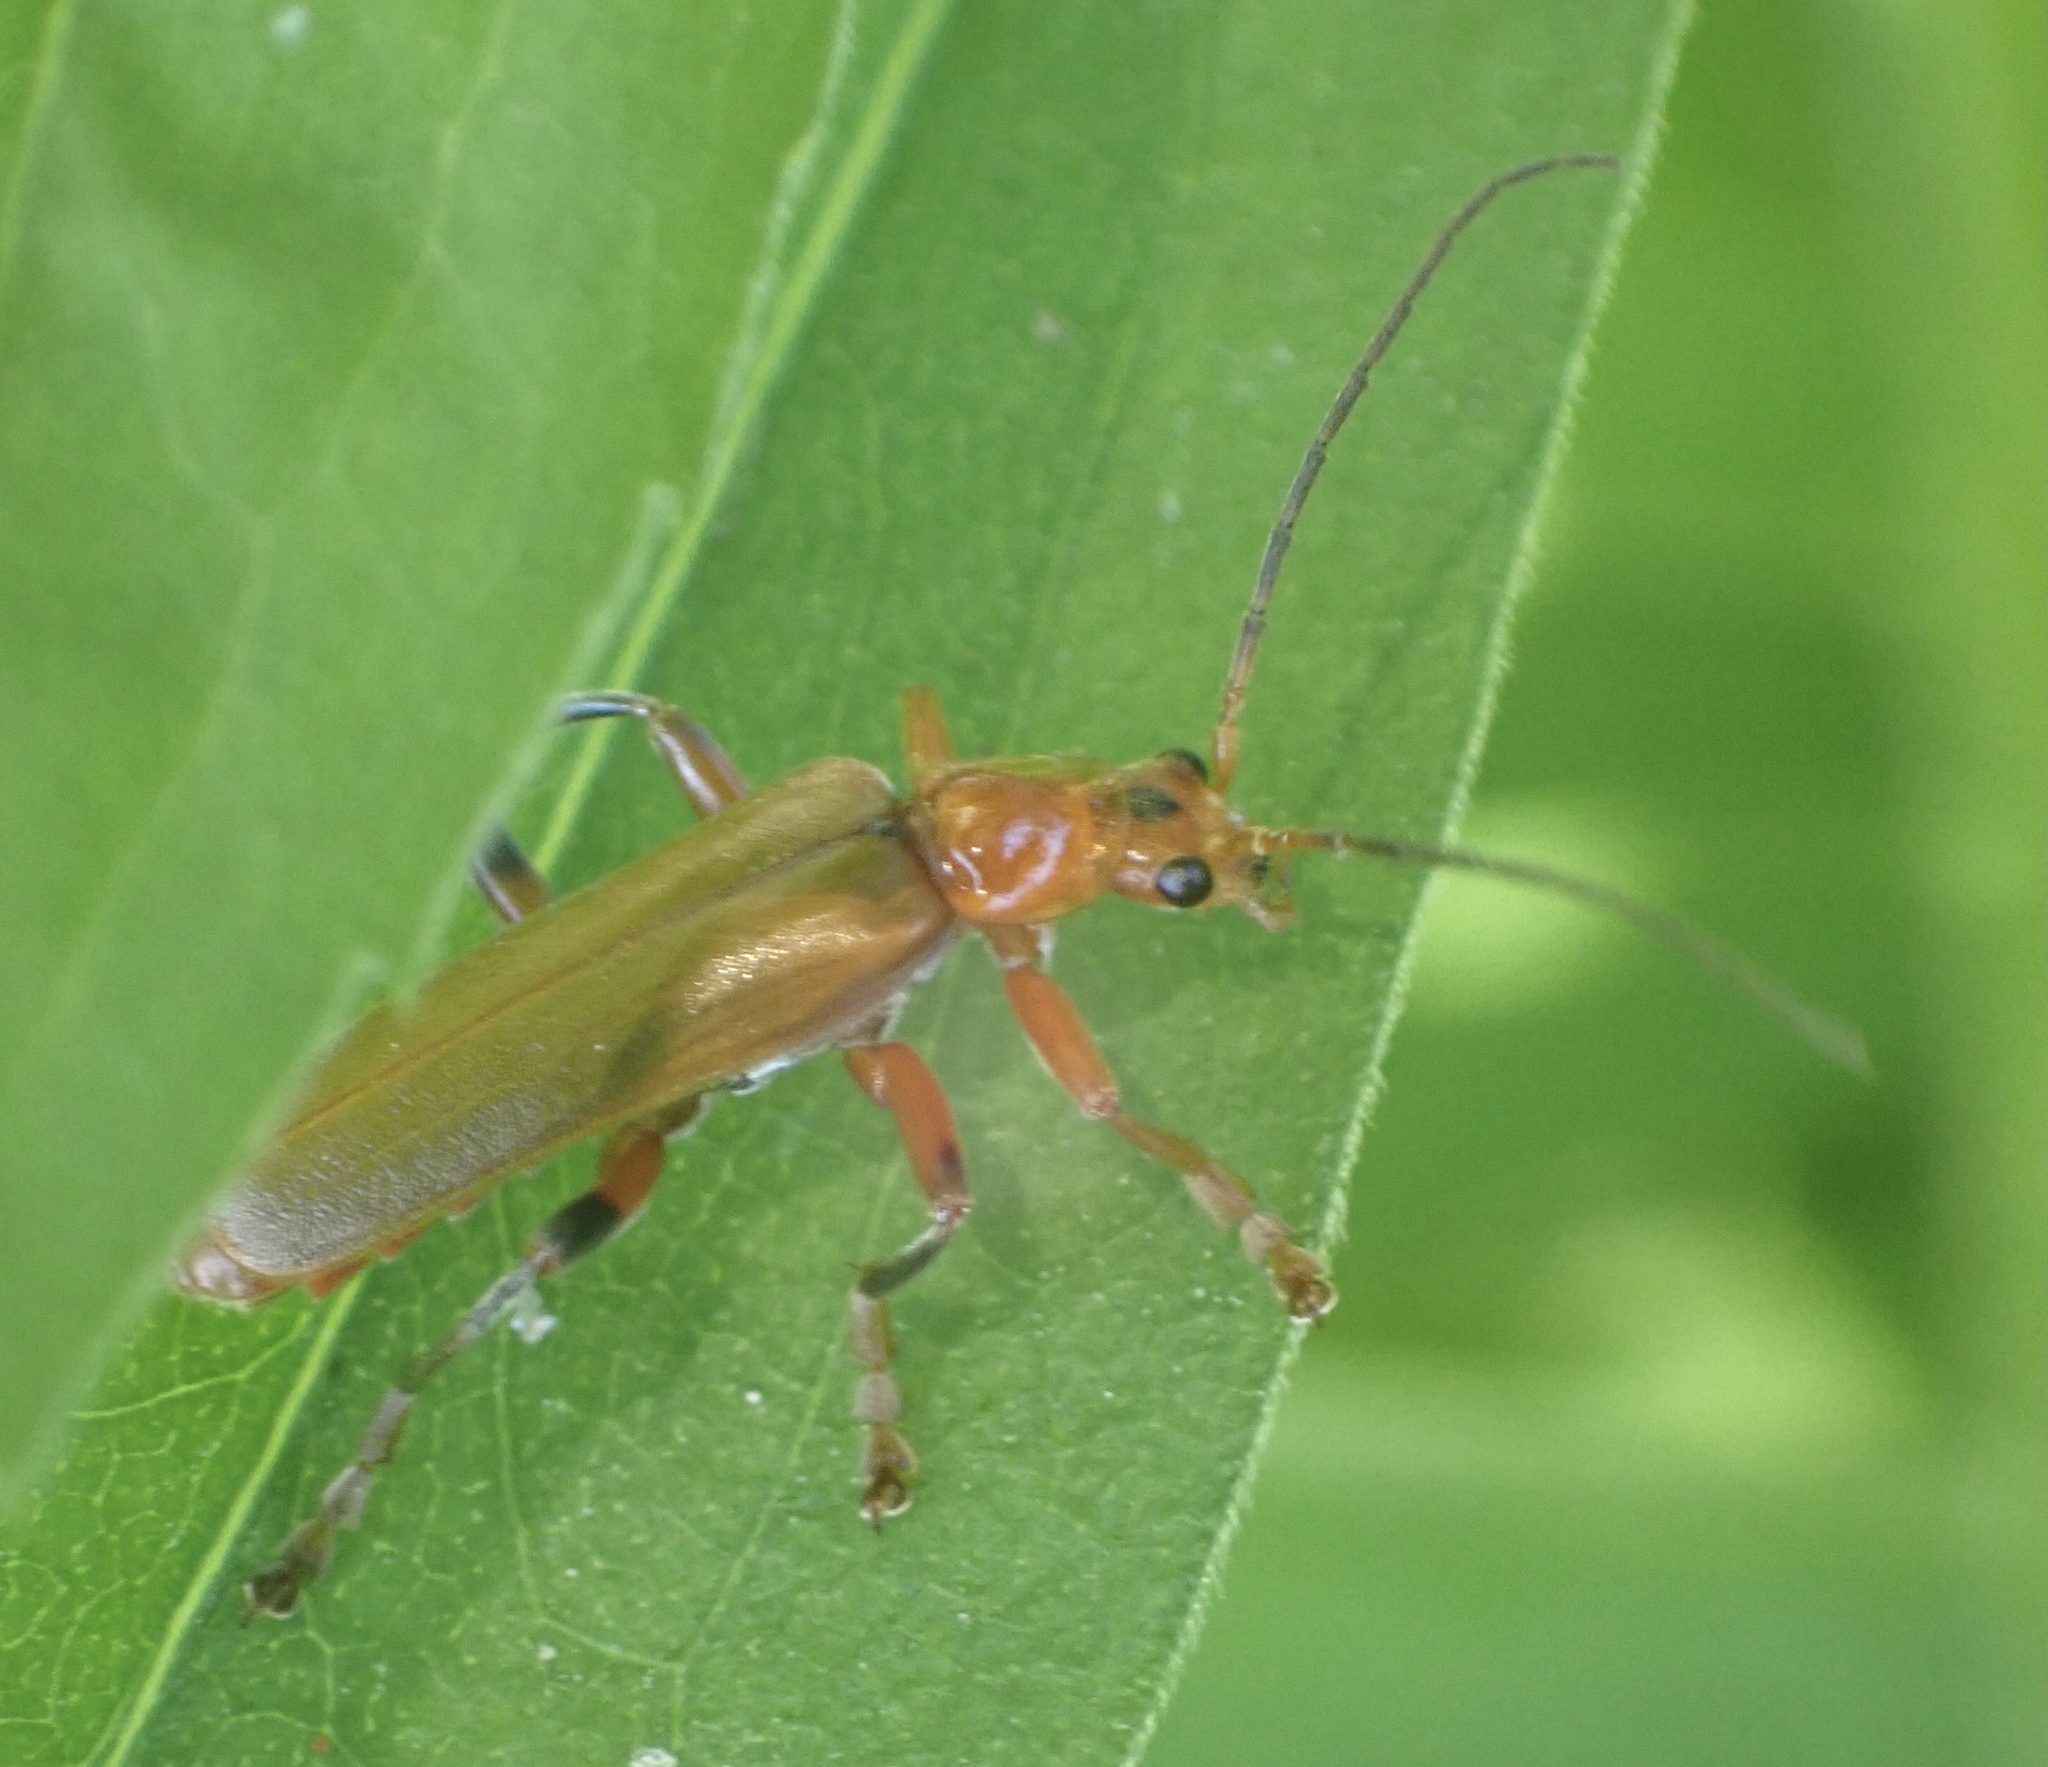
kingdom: Animalia
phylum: Arthropoda
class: Insecta
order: Coleoptera
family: Cantharidae
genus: Cantharis
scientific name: Cantharis livida
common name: Livid soldier beetle
